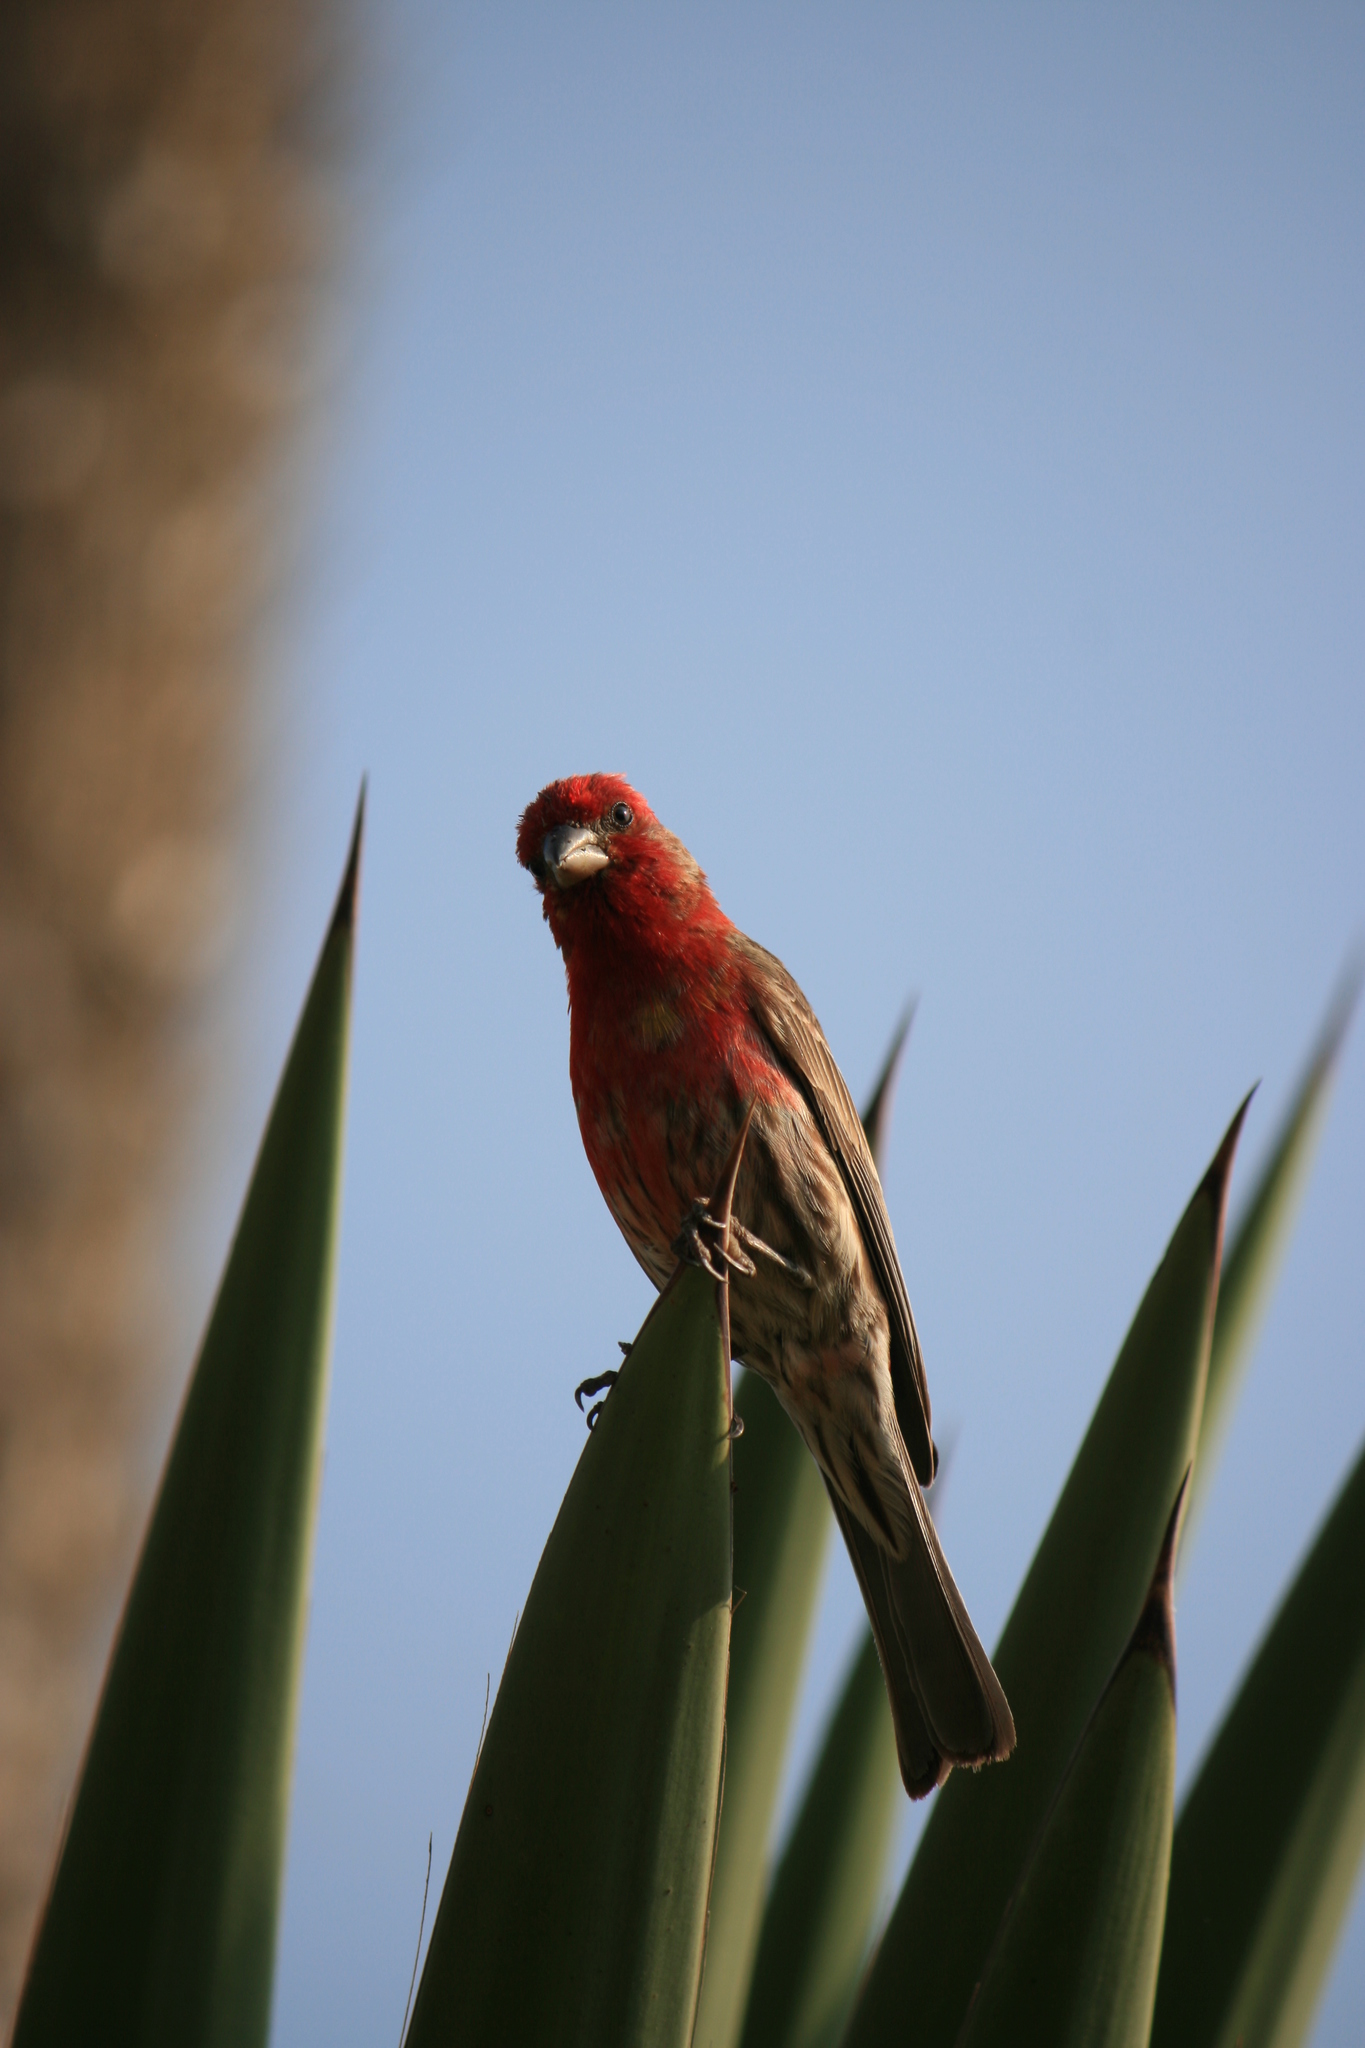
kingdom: Animalia
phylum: Chordata
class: Aves
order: Passeriformes
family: Fringillidae
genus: Haemorhous
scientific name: Haemorhous mexicanus
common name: House finch
